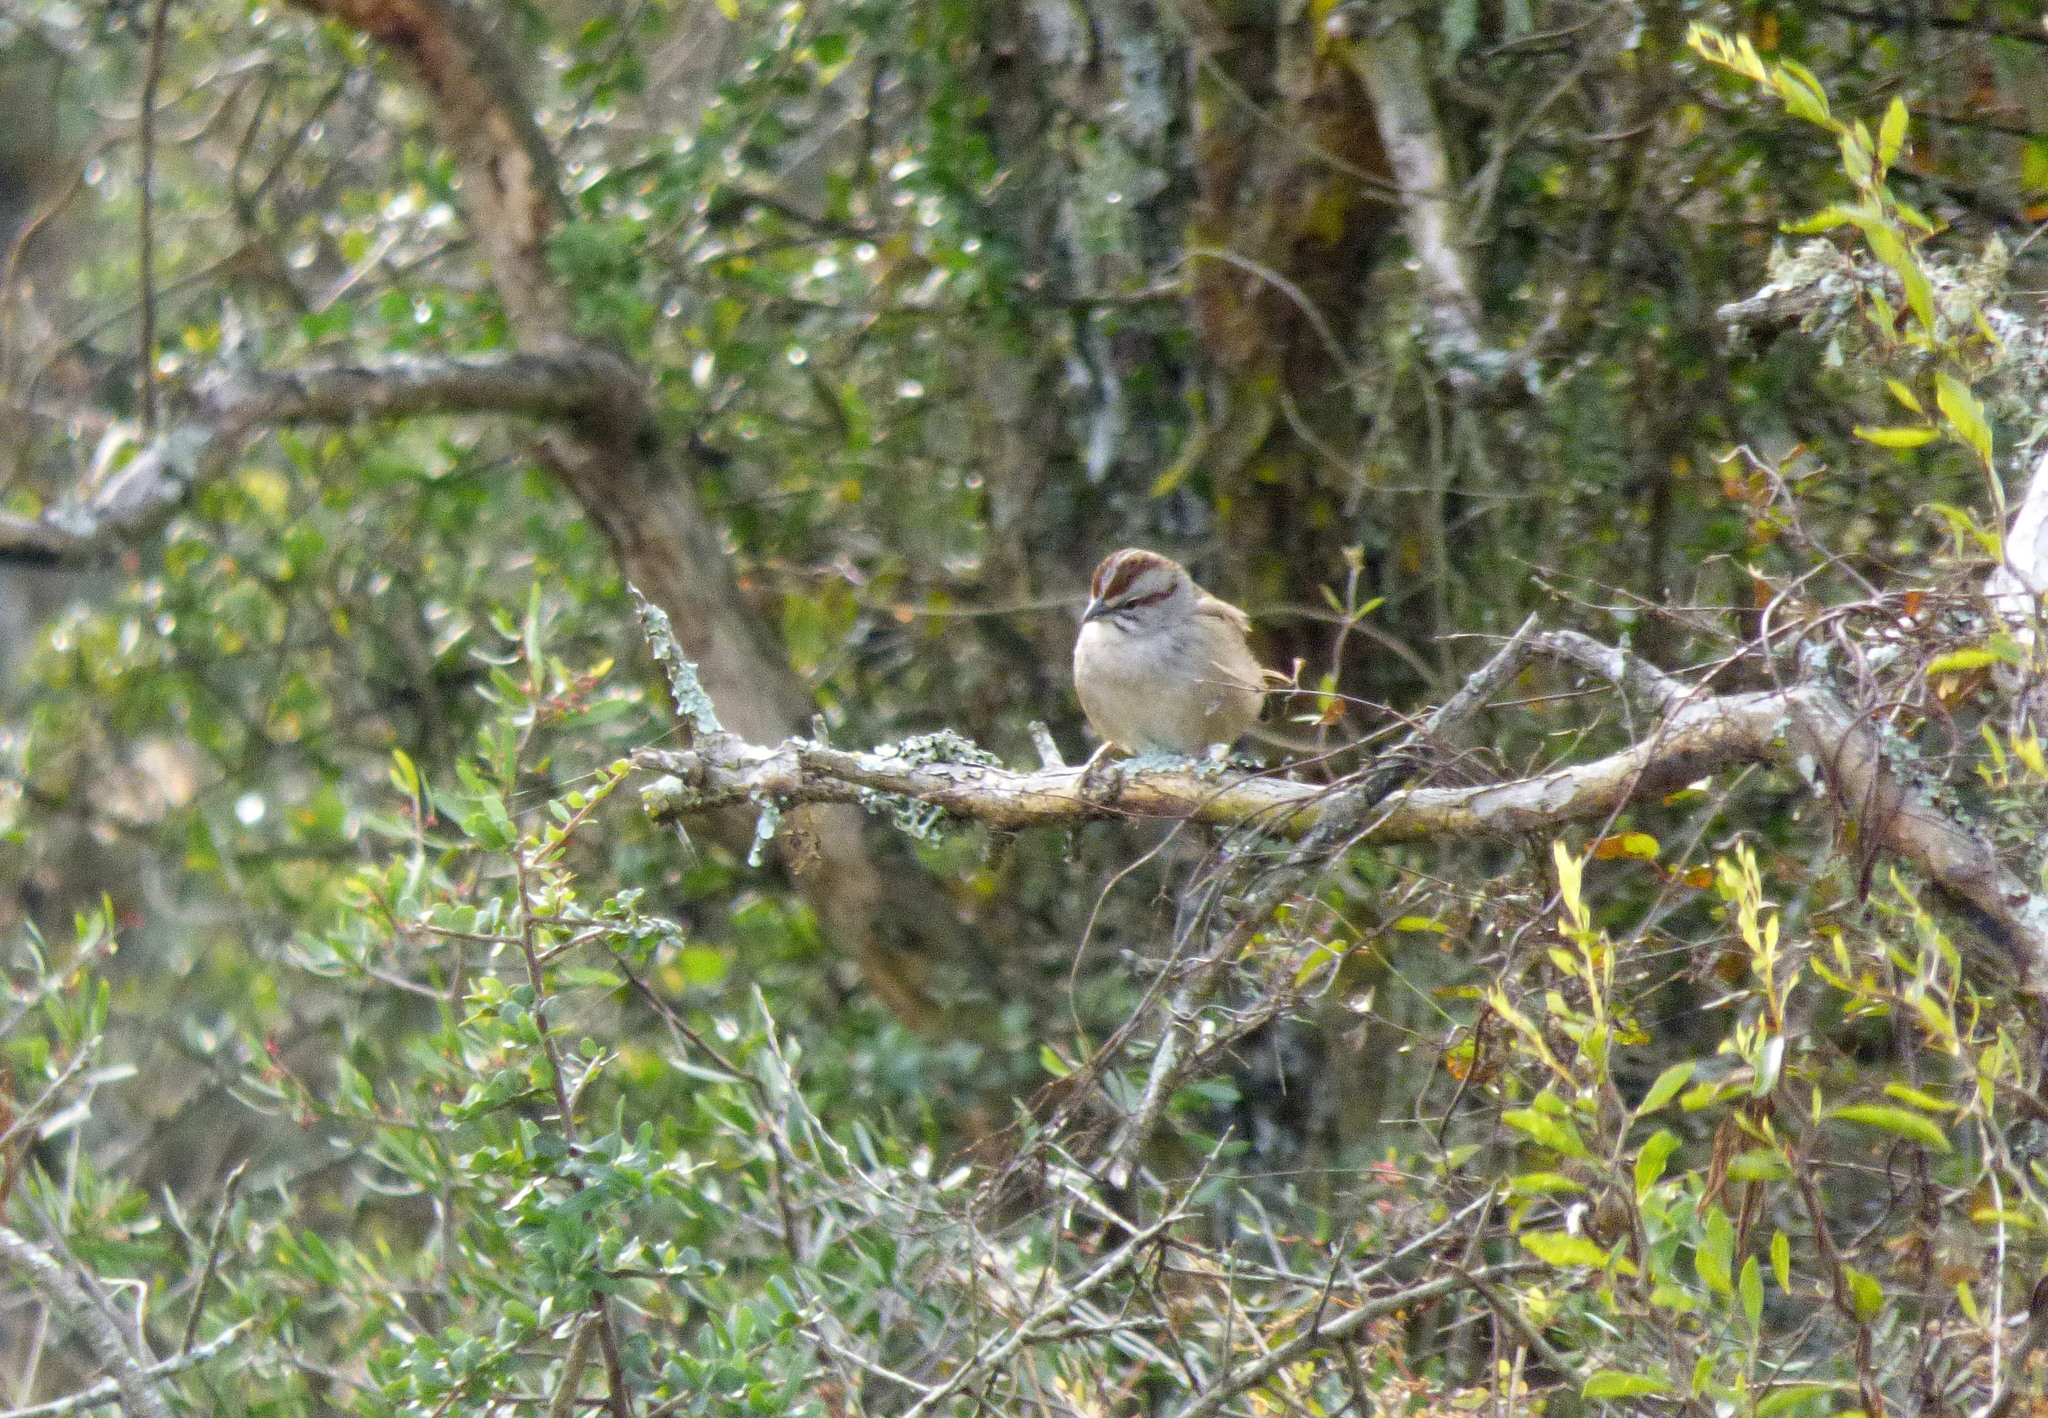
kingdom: Animalia
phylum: Chordata
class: Aves
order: Passeriformes
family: Passerellidae
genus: Rhynchospiza
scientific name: Rhynchospiza strigiceps
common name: Stripe-capped sparrow
